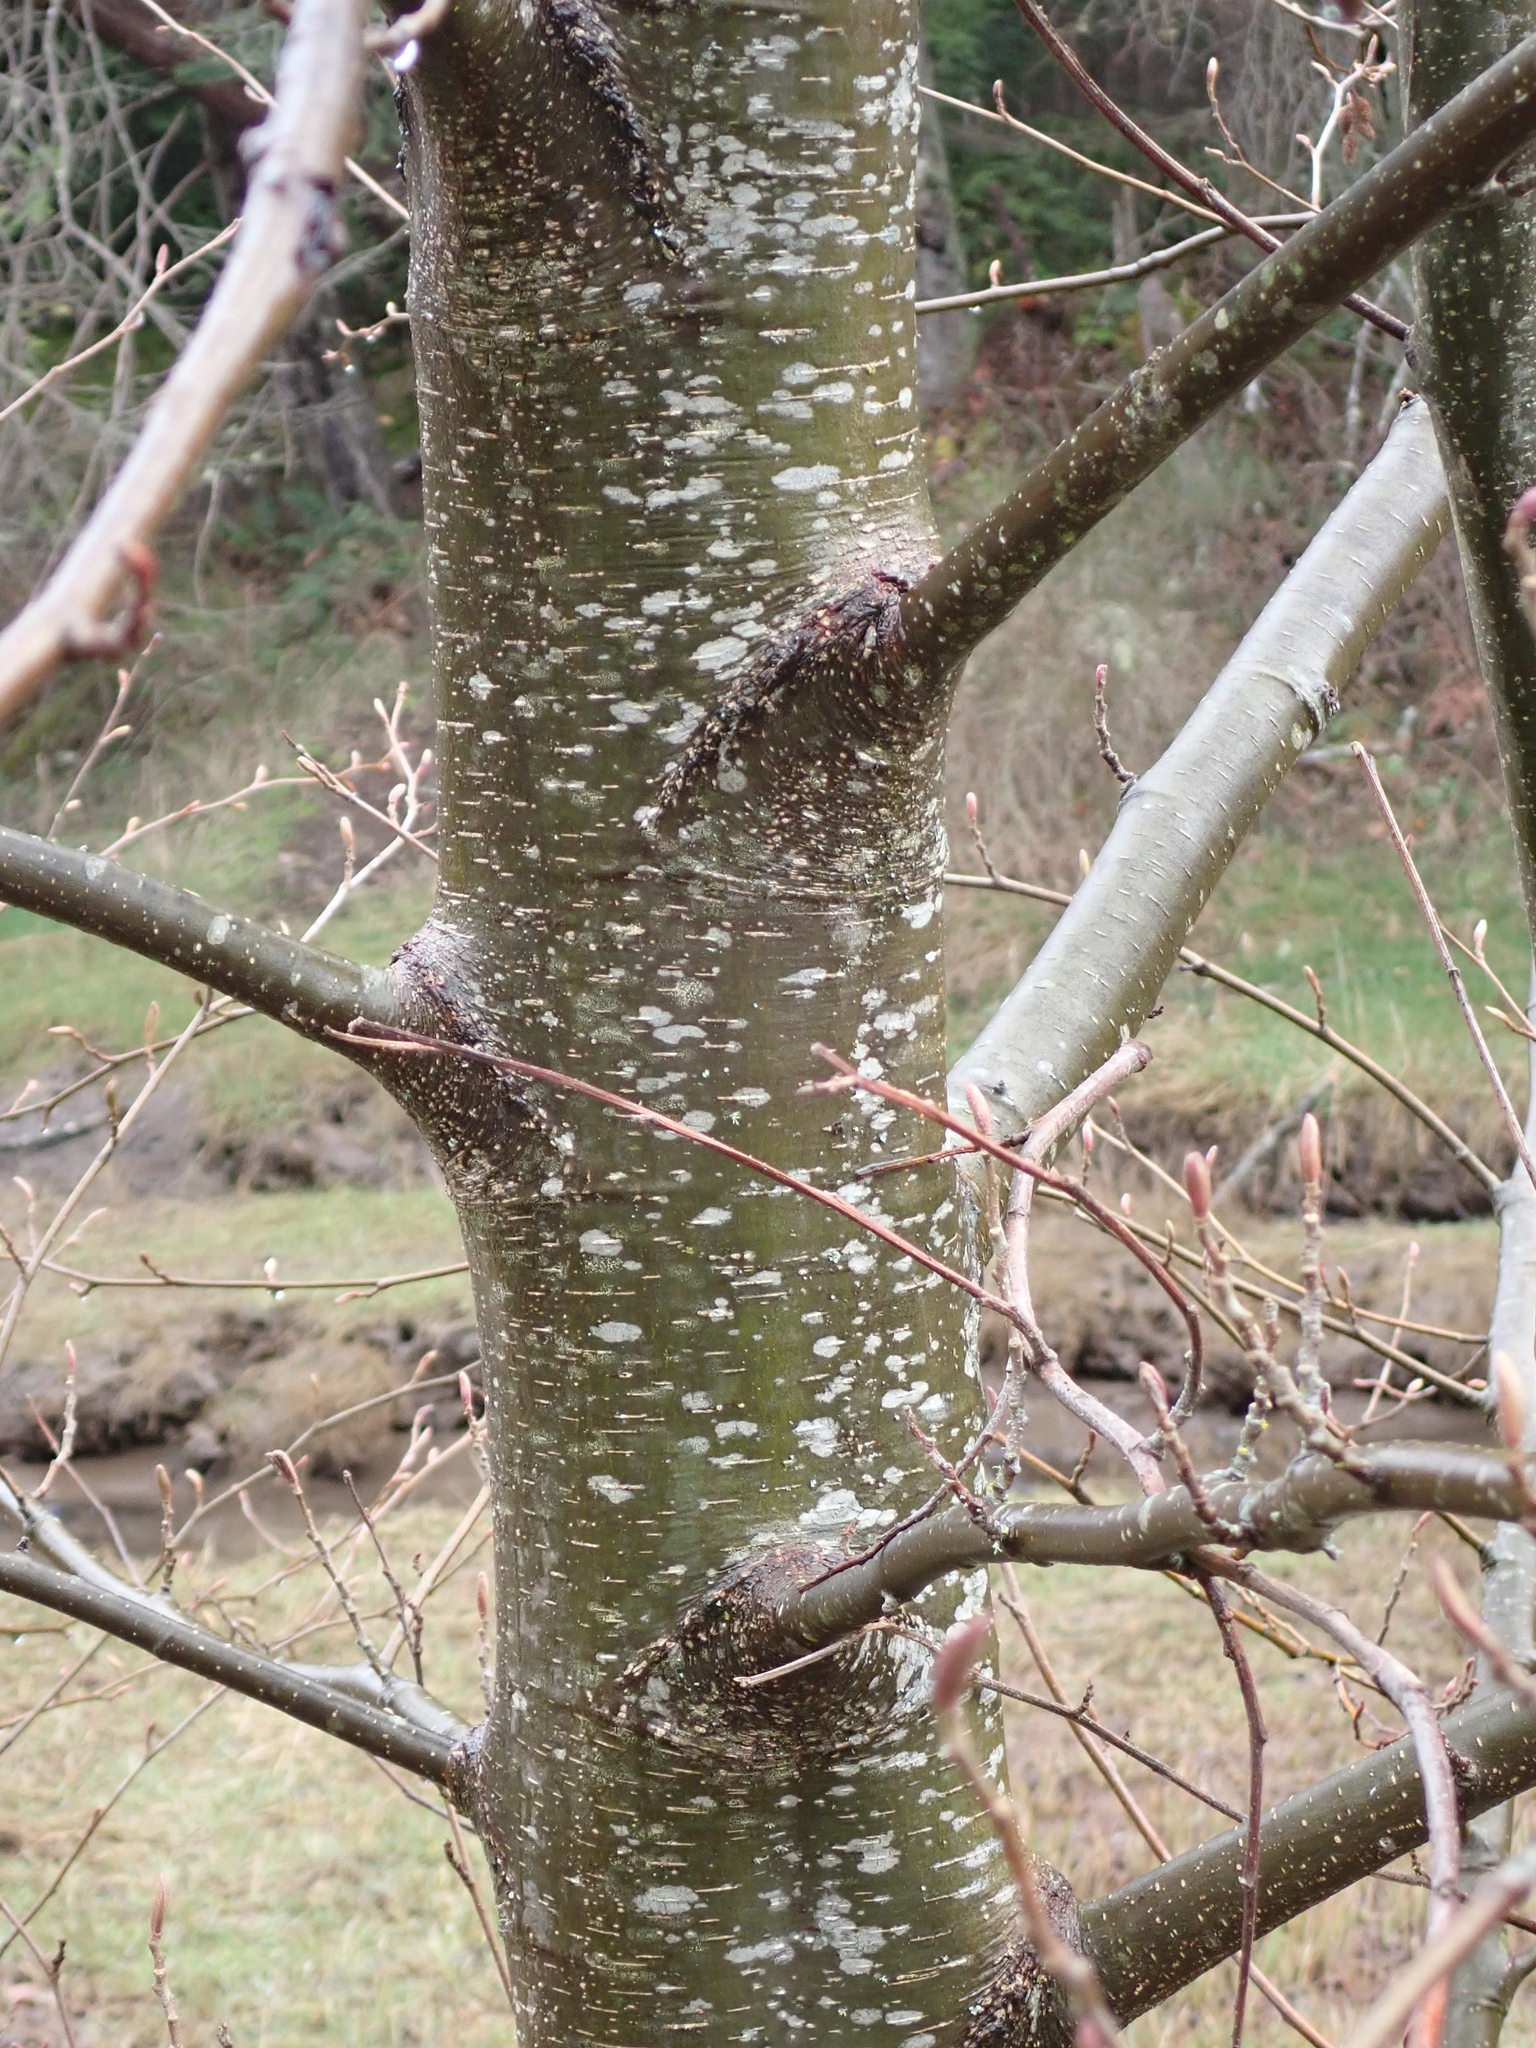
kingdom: Plantae
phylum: Tracheophyta
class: Magnoliopsida
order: Fagales
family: Betulaceae
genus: Alnus
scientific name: Alnus rubra
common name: Red alder
